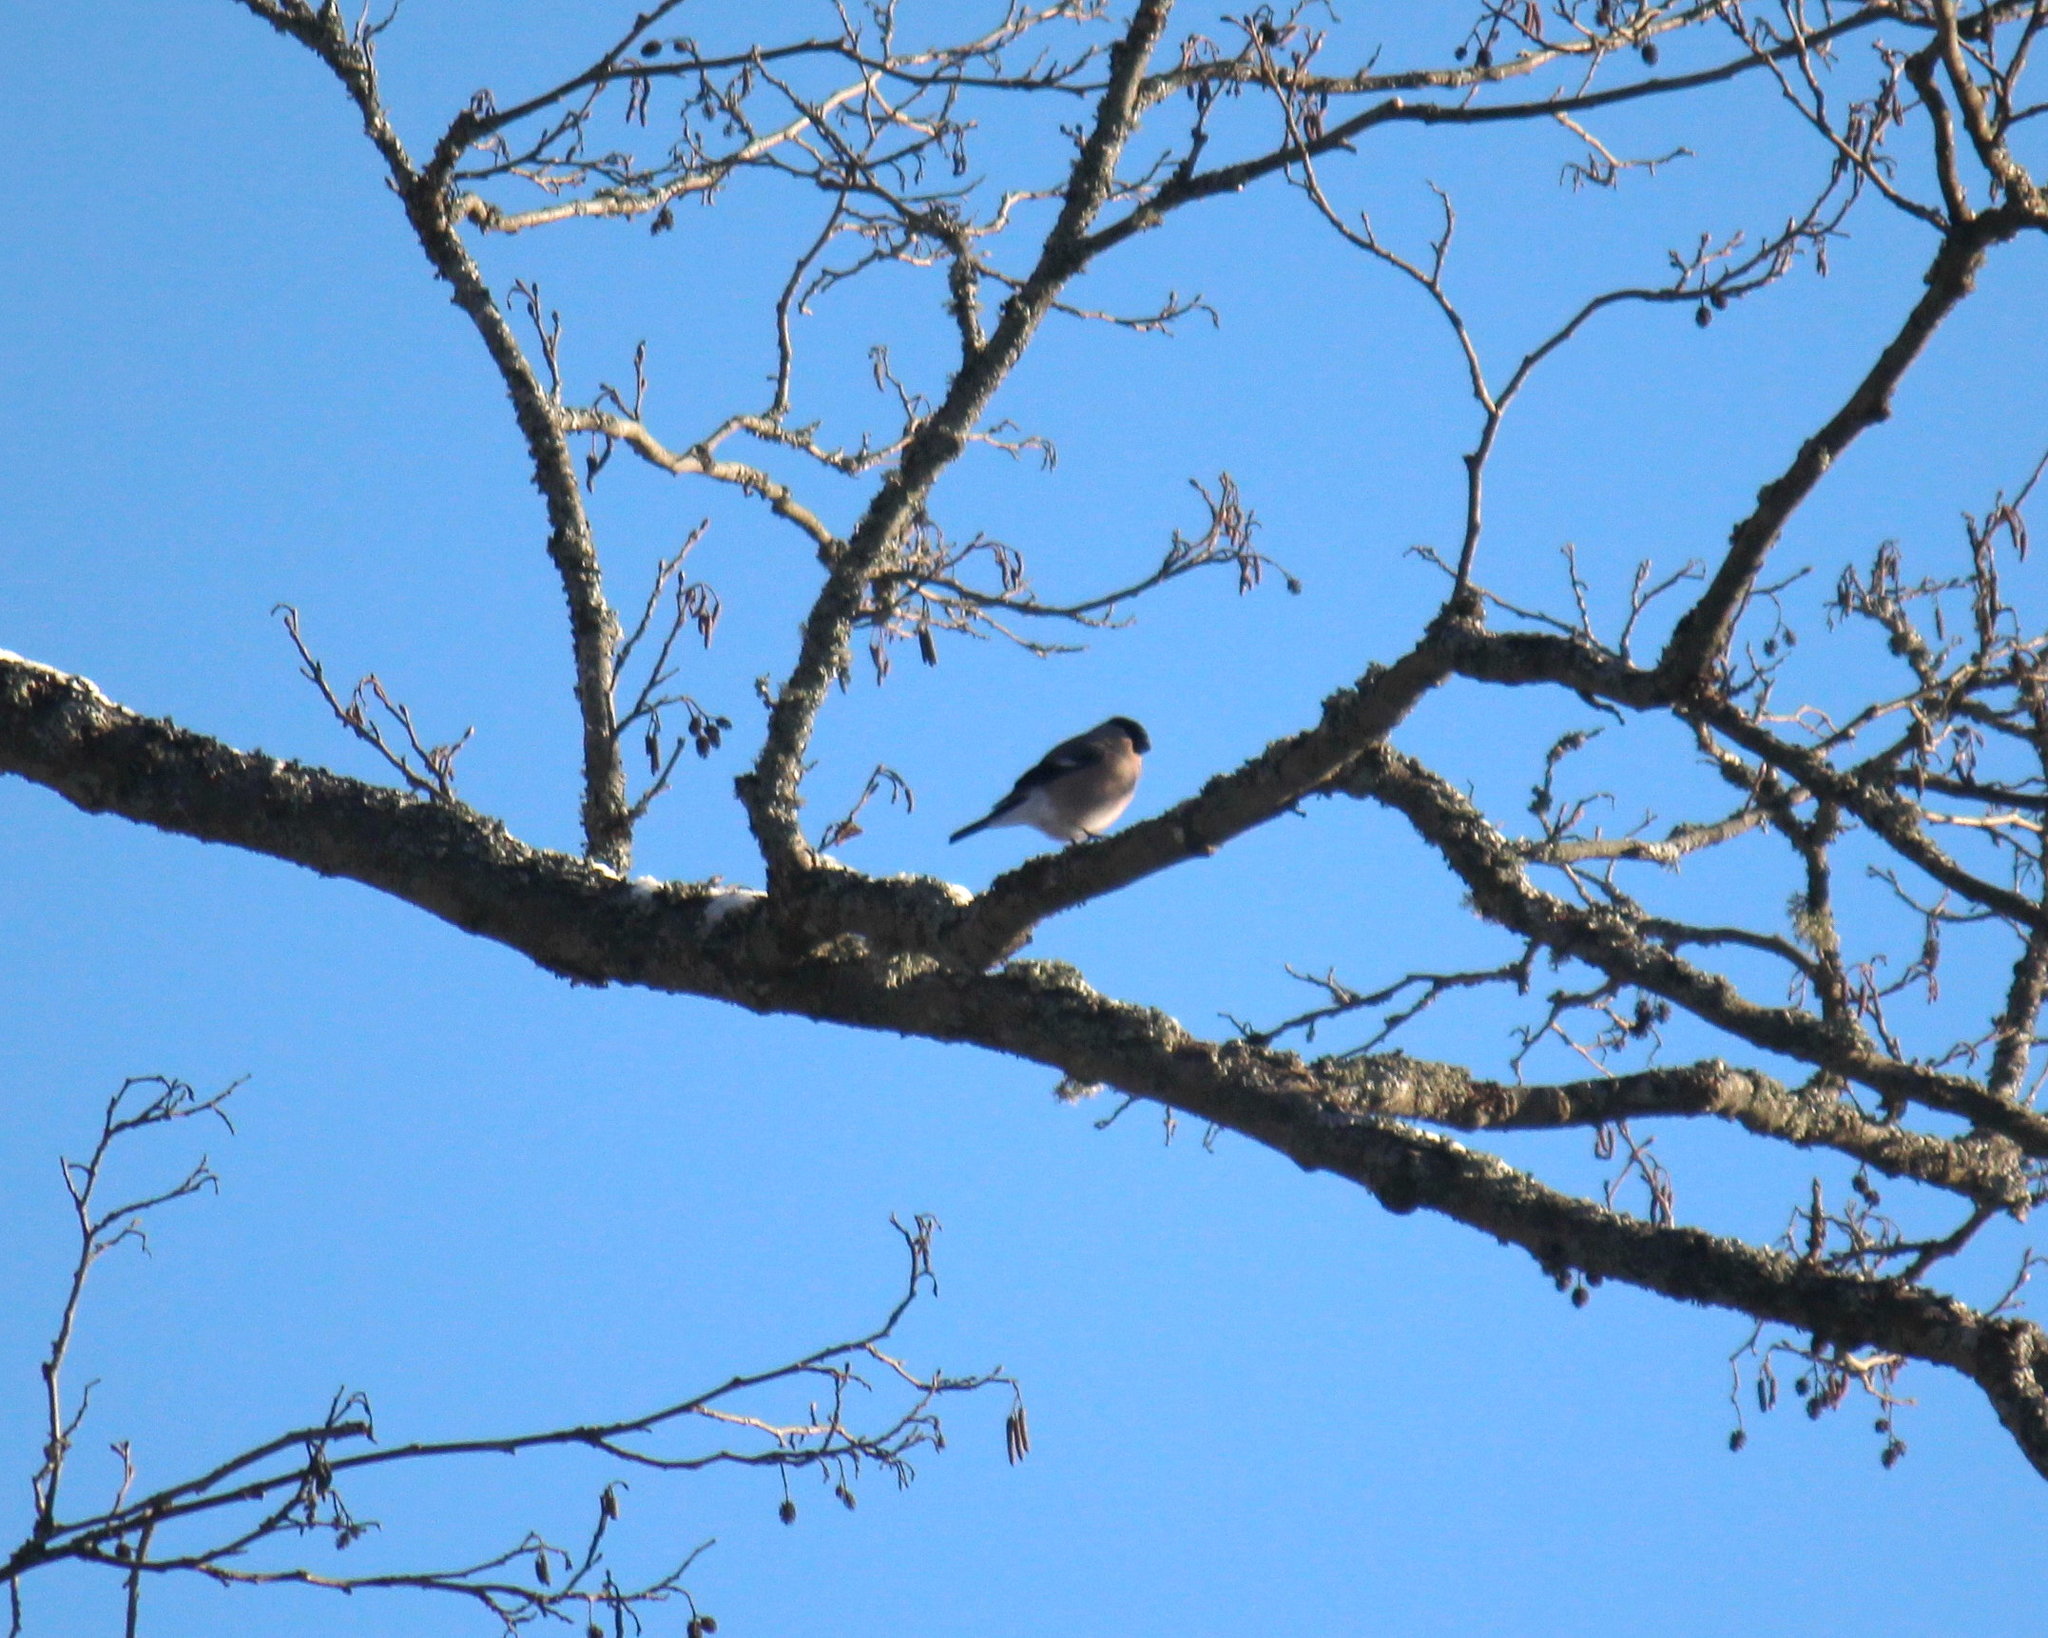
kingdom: Animalia
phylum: Chordata
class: Aves
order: Passeriformes
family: Fringillidae
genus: Pyrrhula
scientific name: Pyrrhula pyrrhula
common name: Eurasian bullfinch
